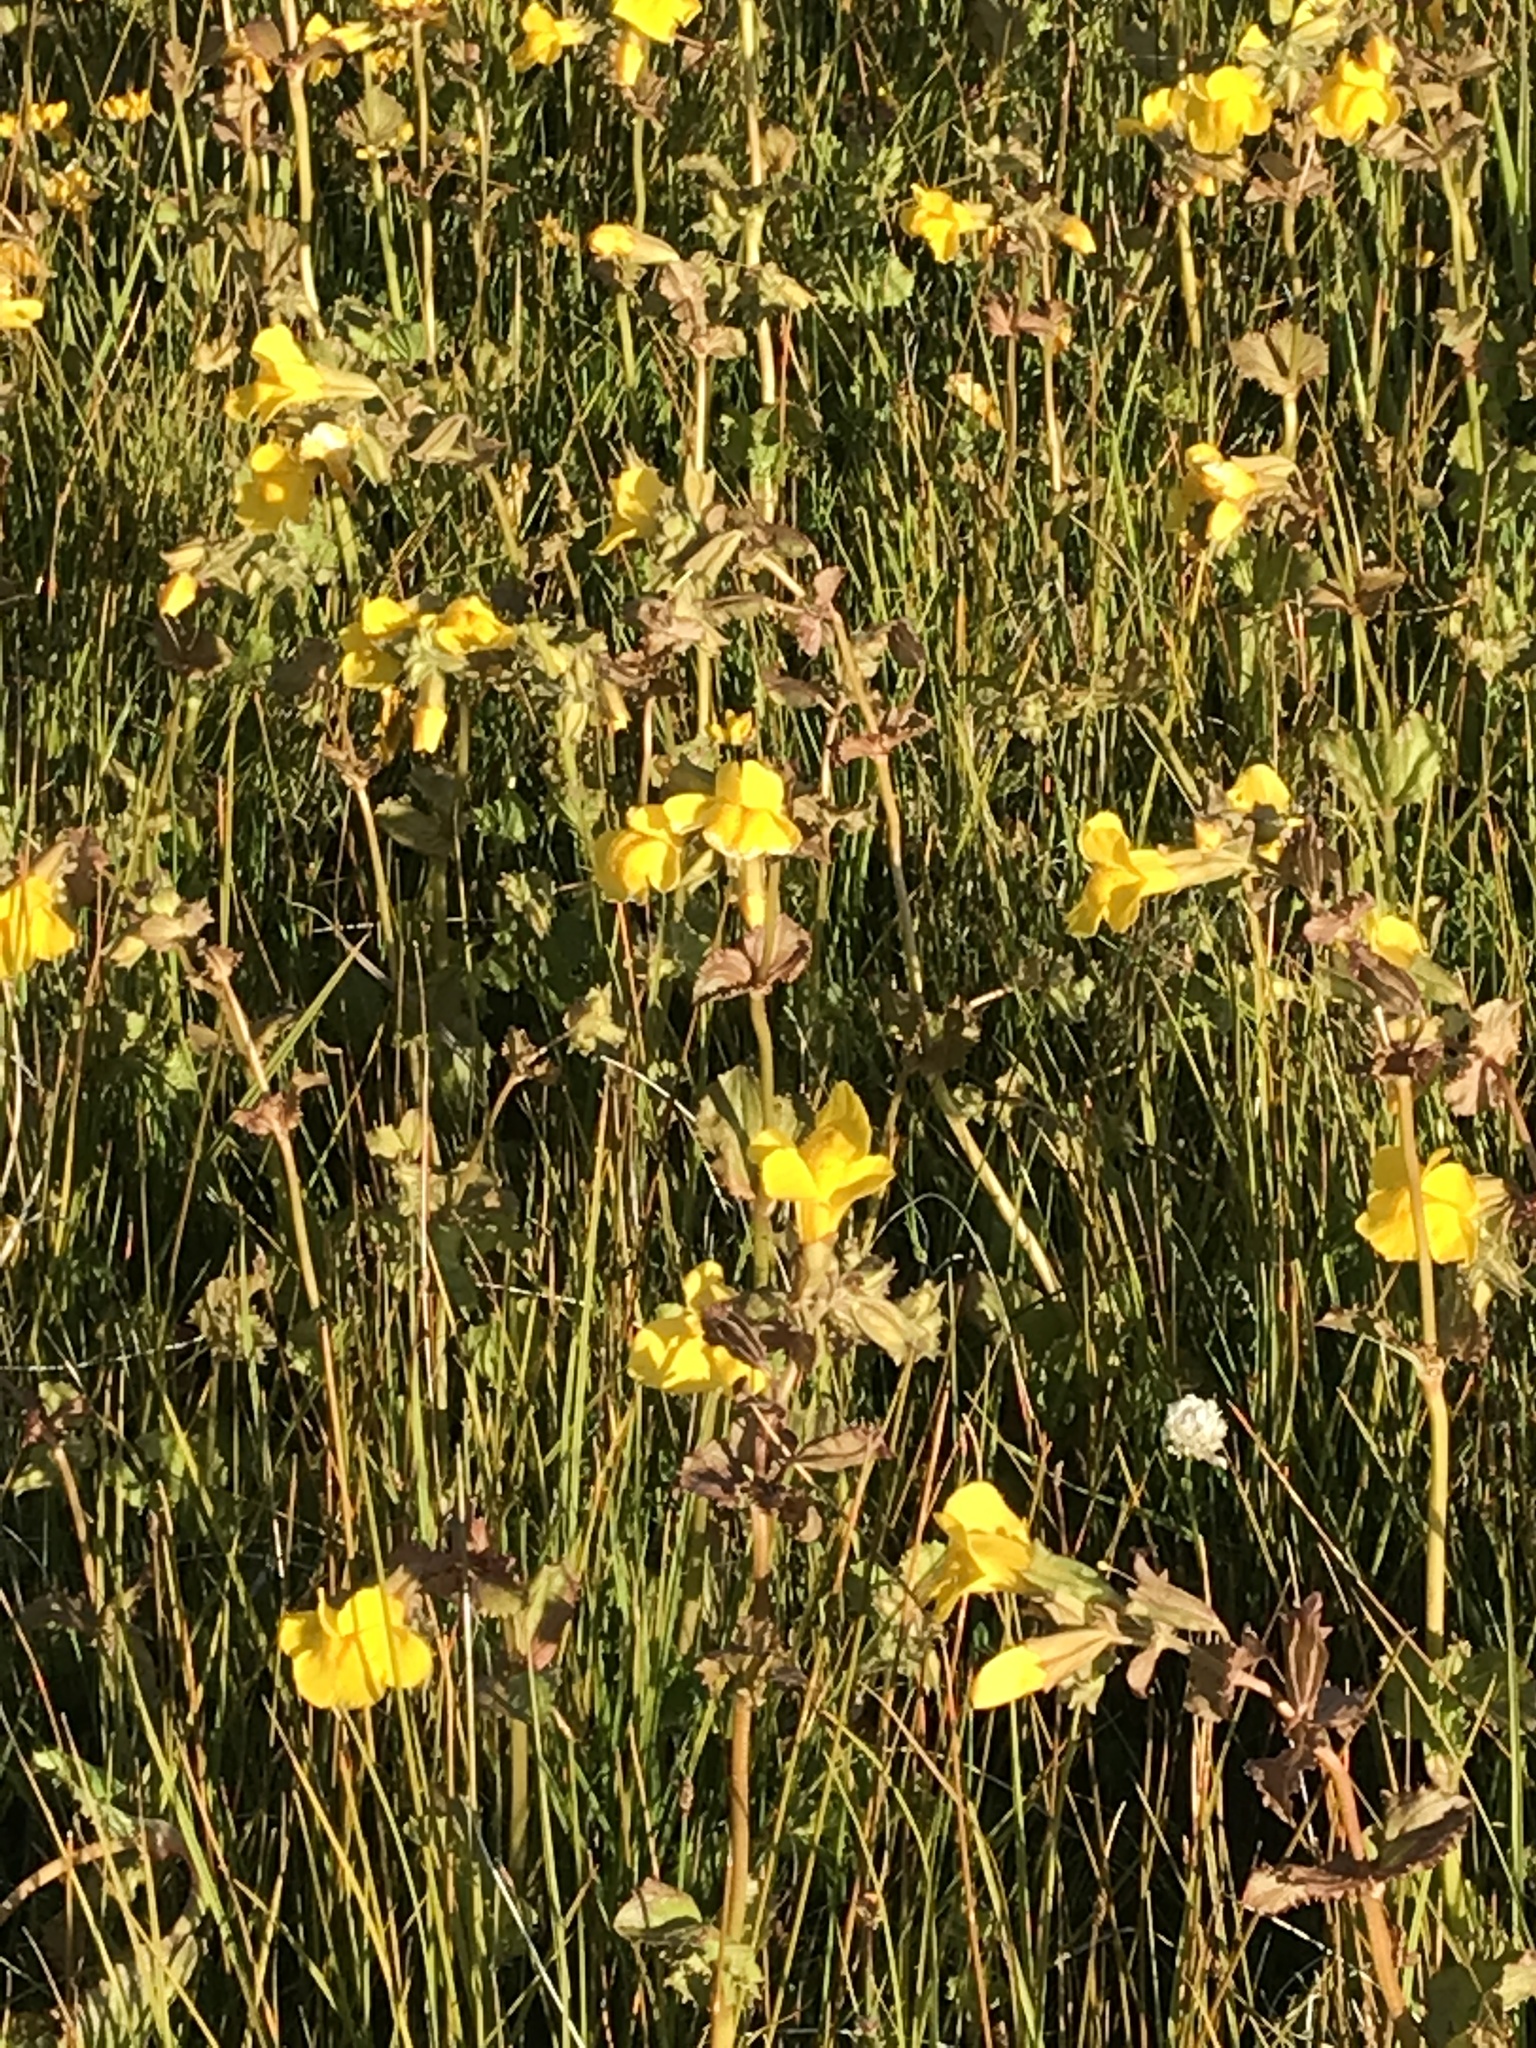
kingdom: Plantae
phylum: Tracheophyta
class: Magnoliopsida
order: Lamiales
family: Phrymaceae
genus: Erythranthe
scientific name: Erythranthe guttata
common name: Monkeyflower
